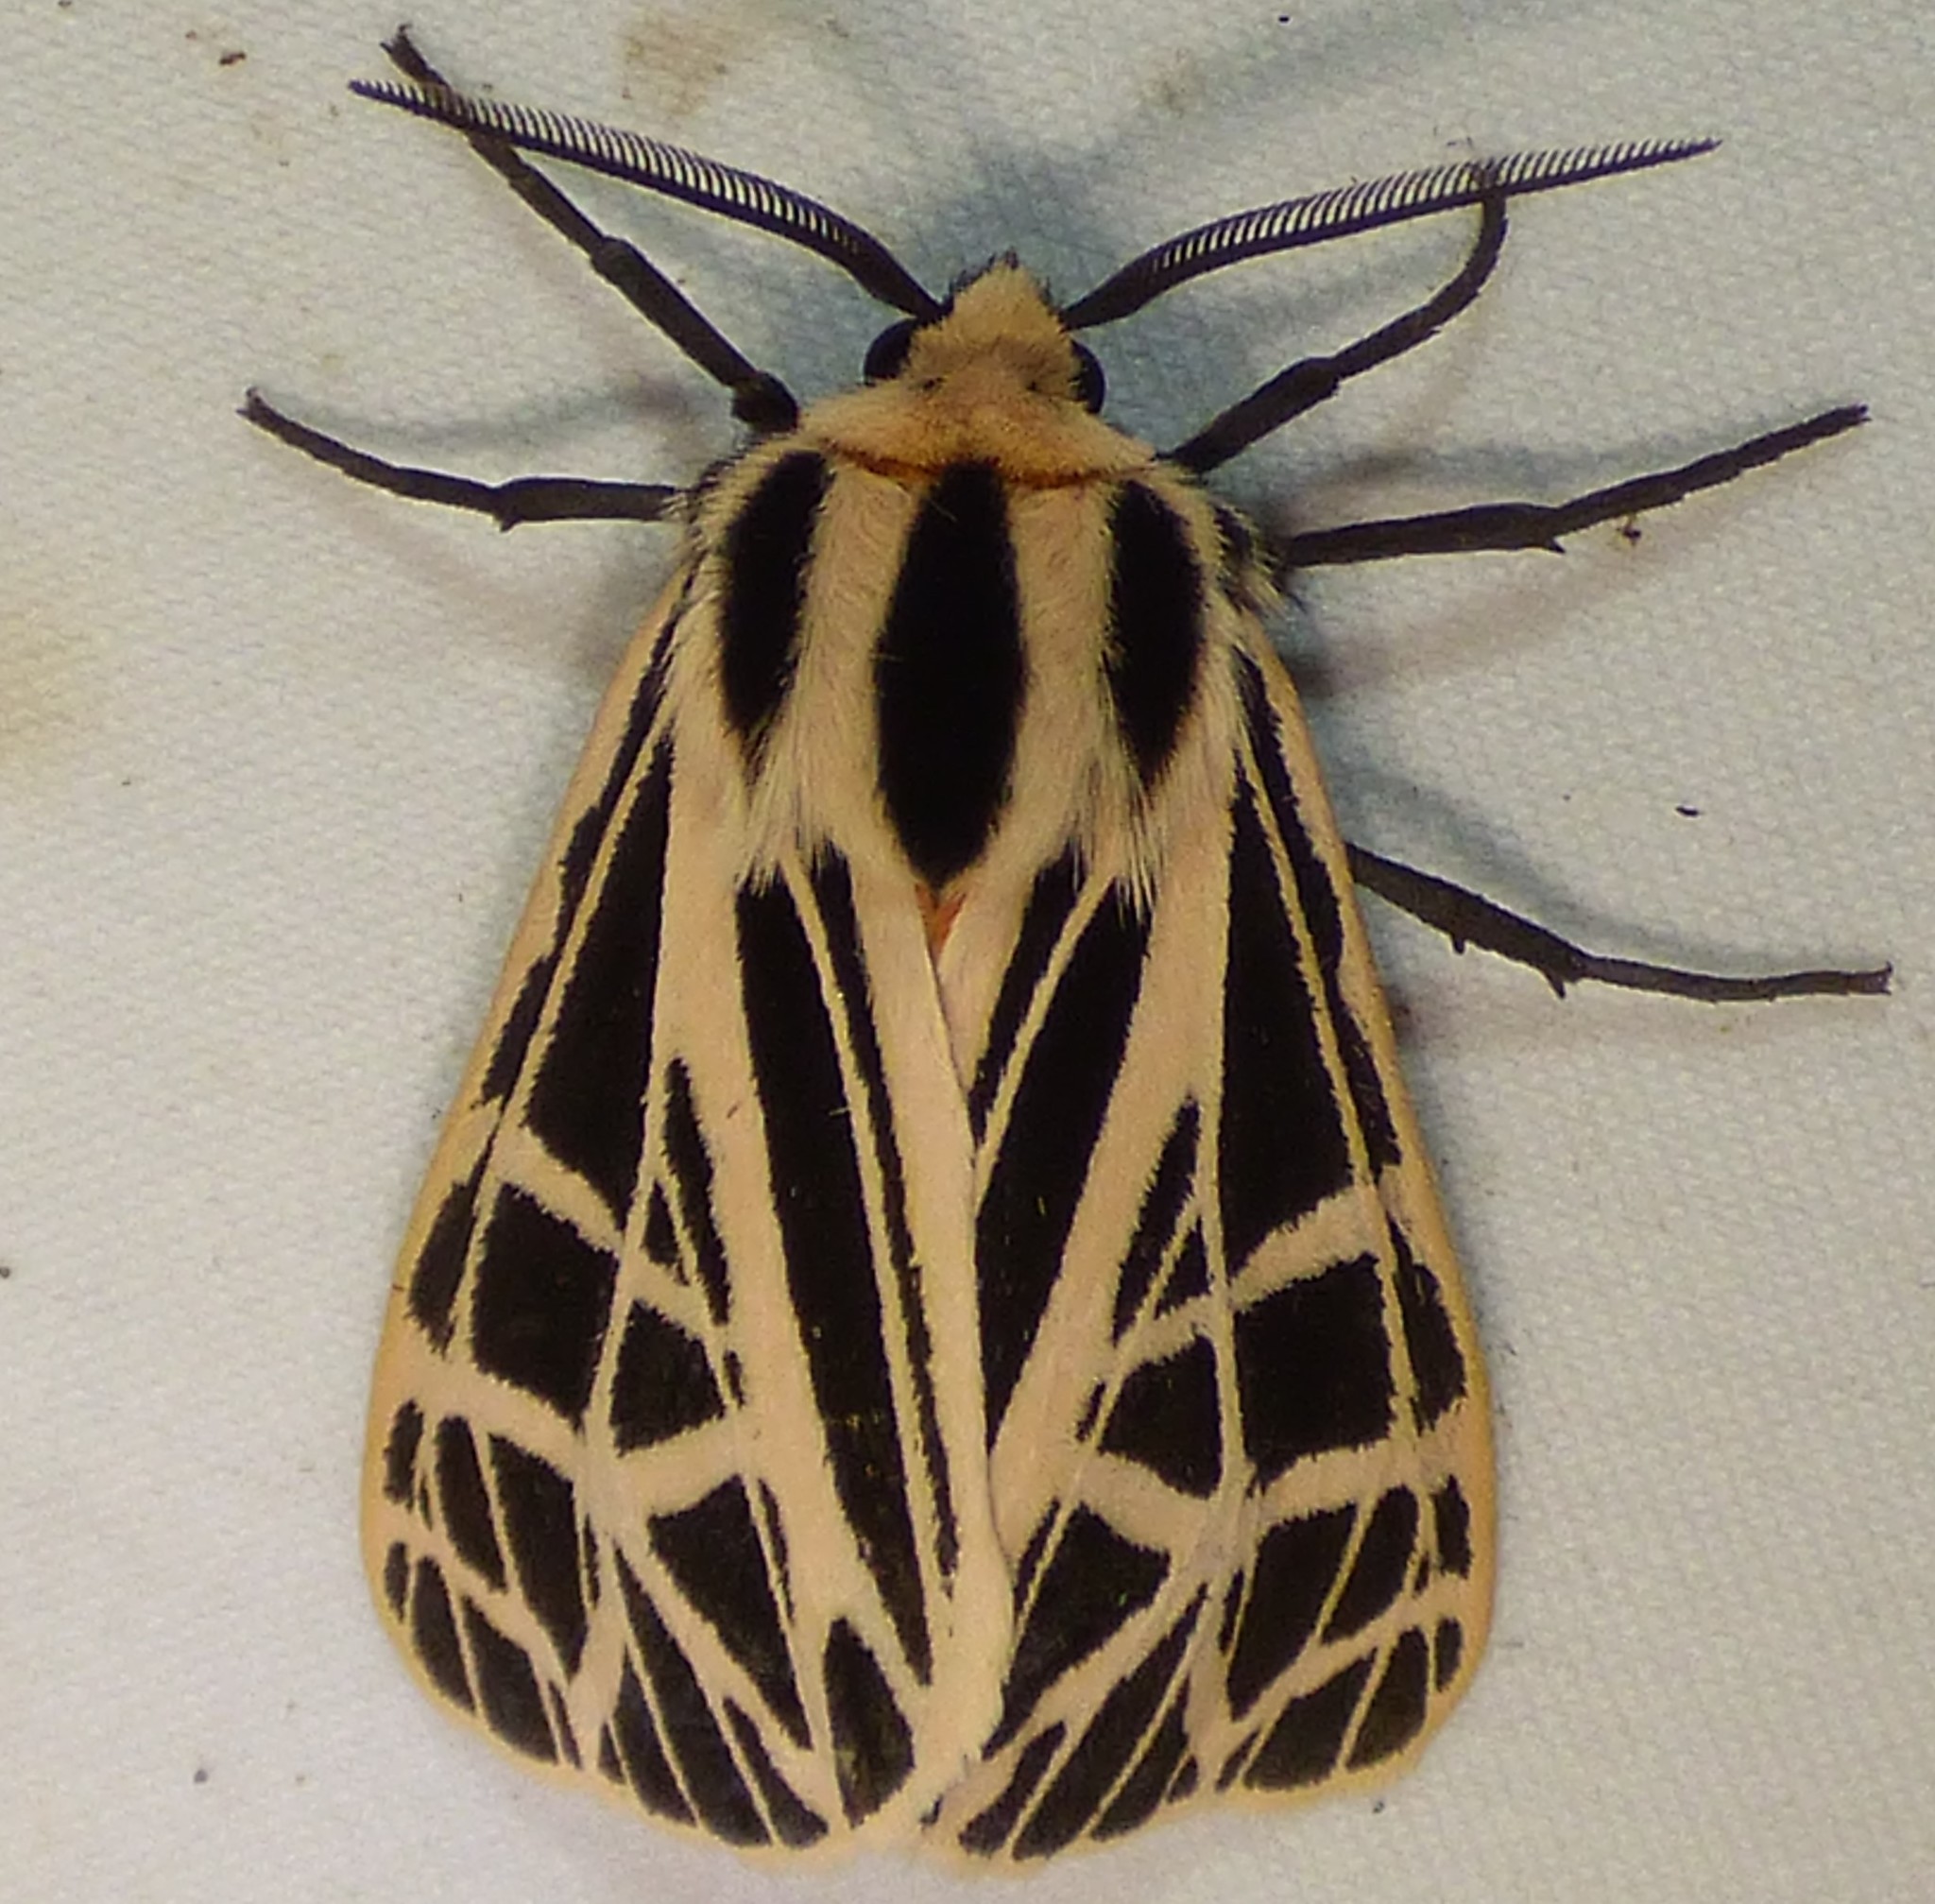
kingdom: Animalia
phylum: Arthropoda
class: Insecta
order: Lepidoptera
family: Erebidae
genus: Grammia
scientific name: Grammia parthenice
